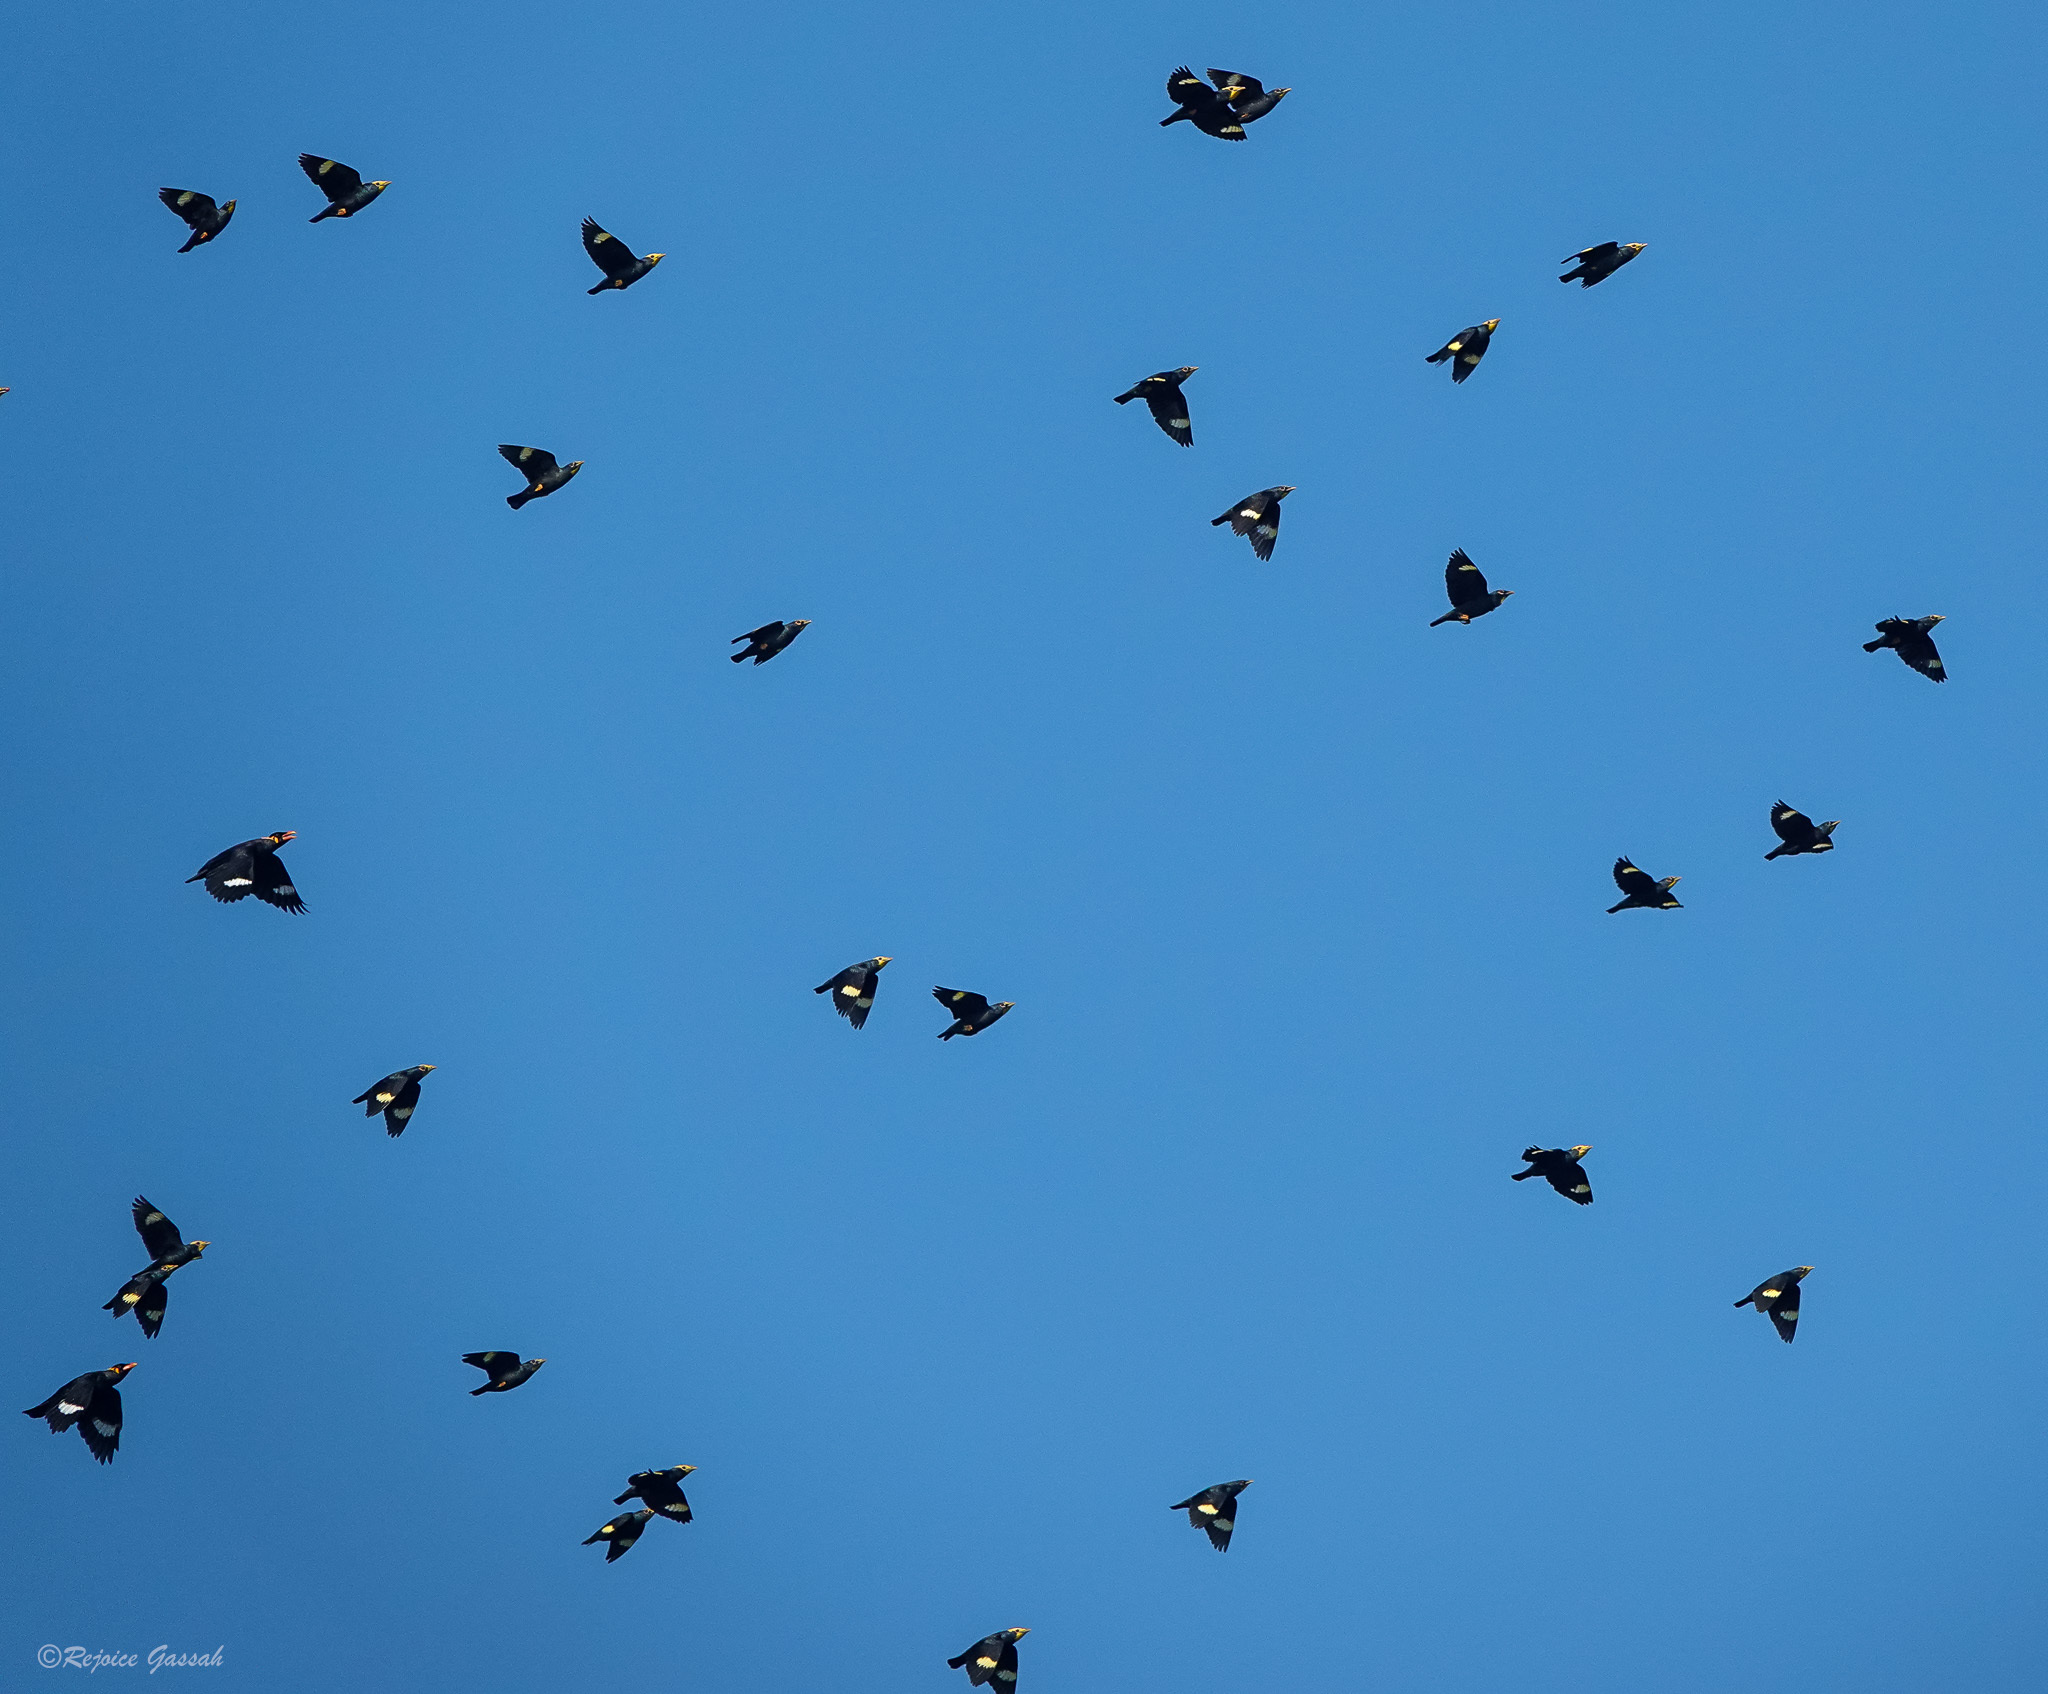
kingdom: Animalia
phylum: Chordata
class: Aves
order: Passeriformes
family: Sturnidae
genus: Ampeliceps
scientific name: Ampeliceps coronatus
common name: Golden-crested myna
